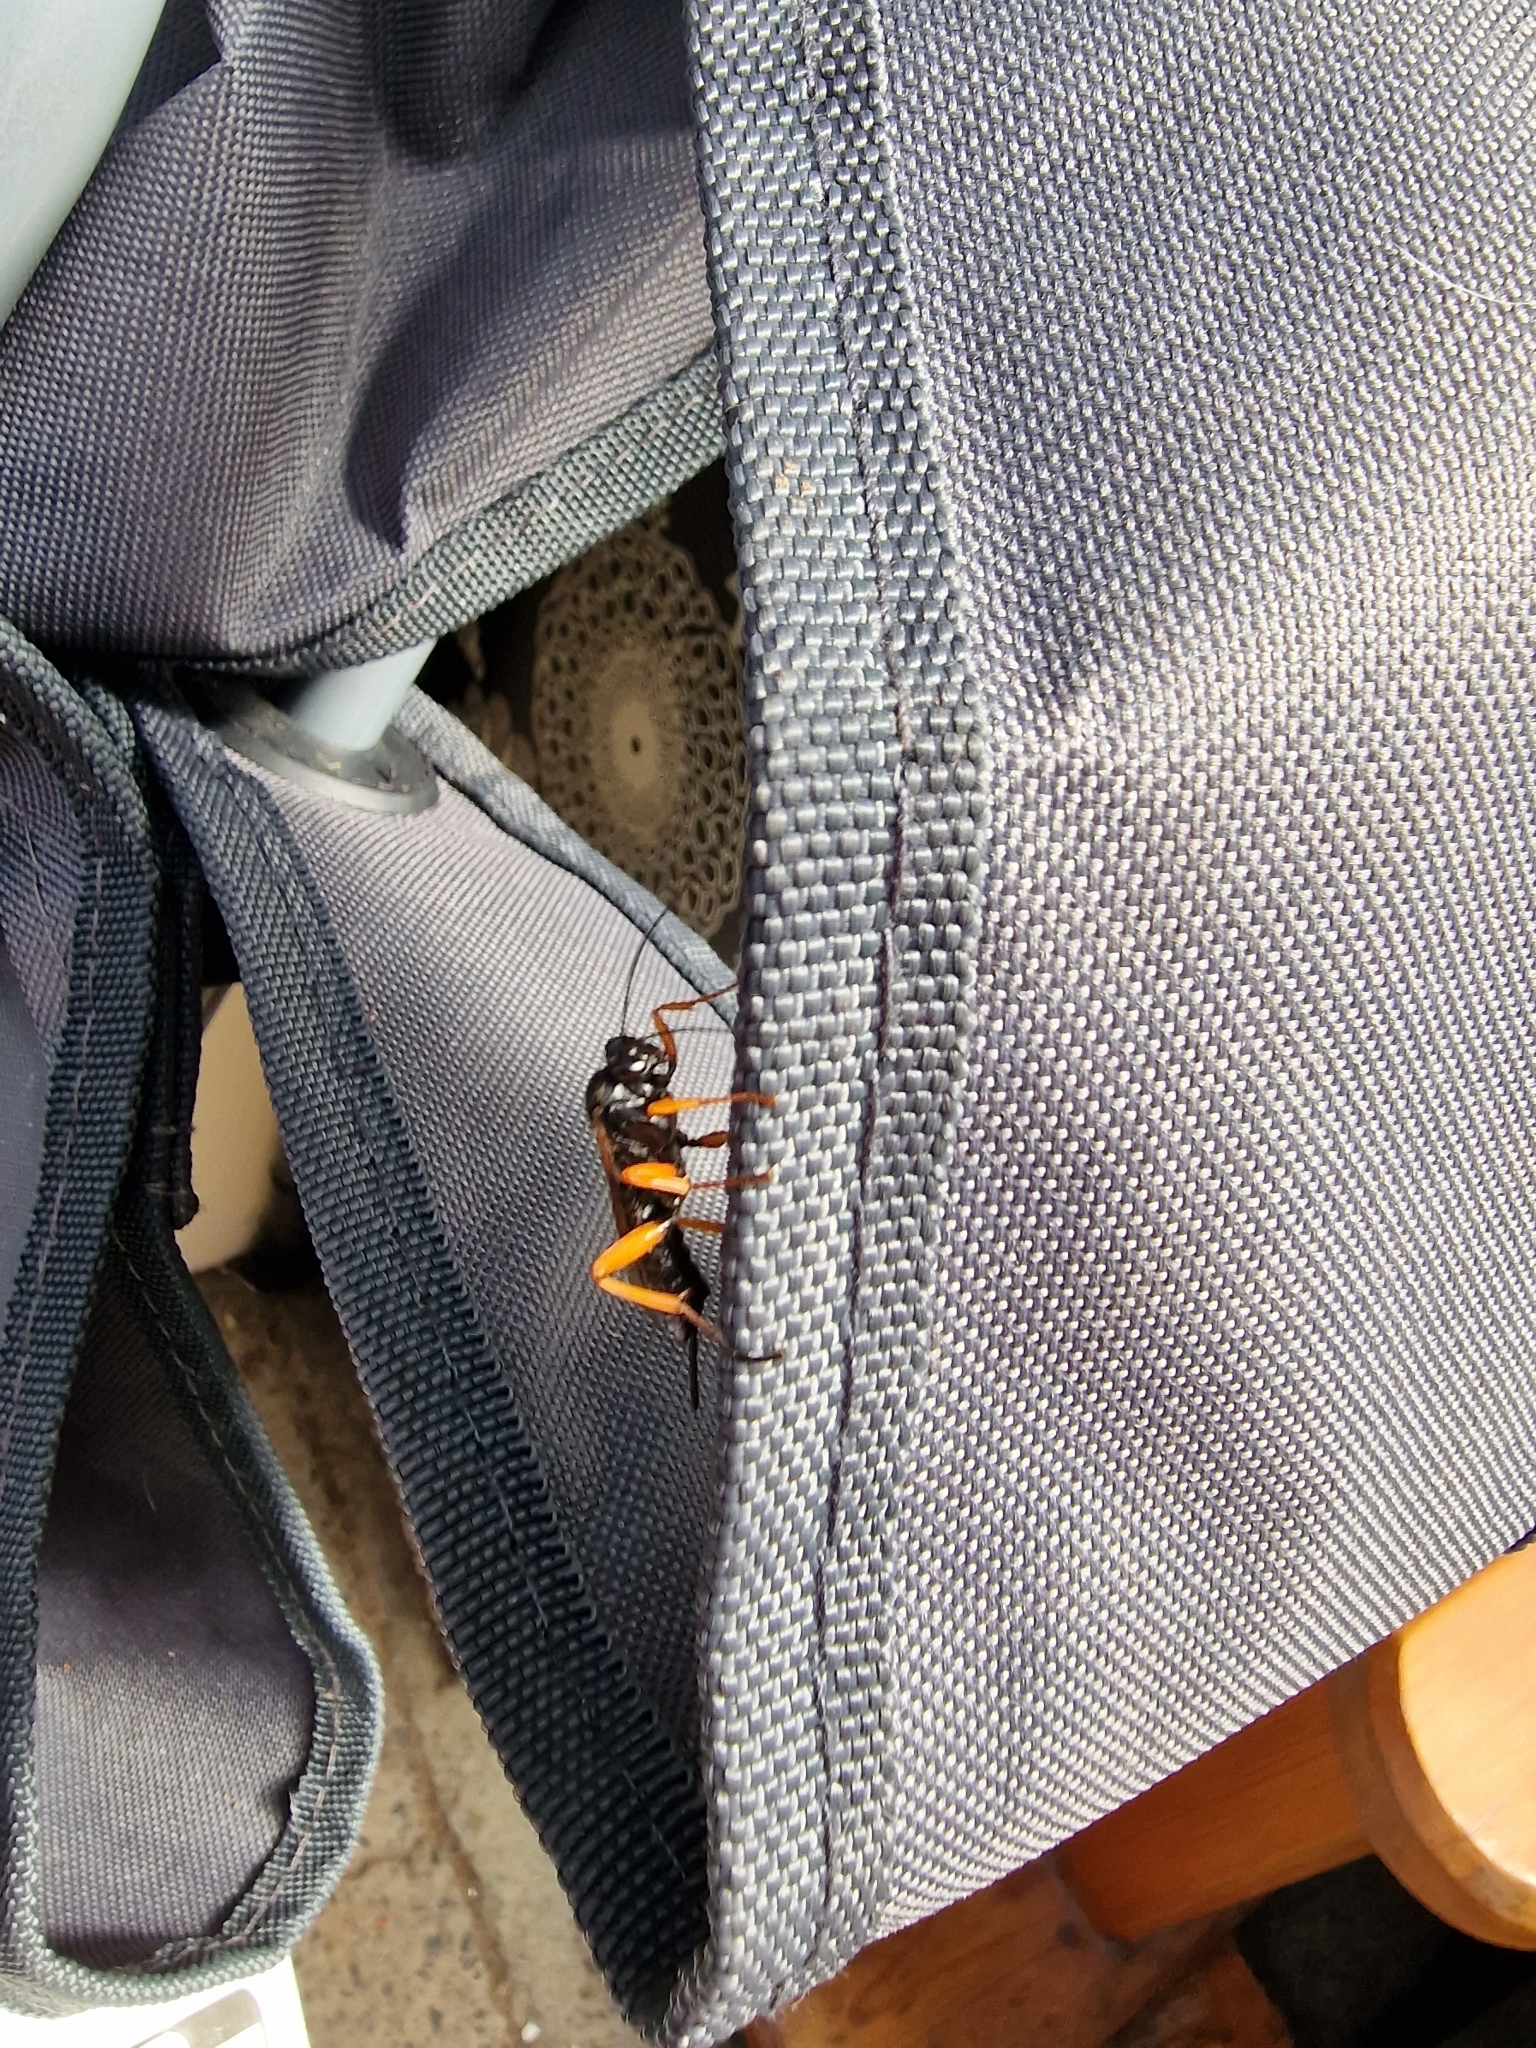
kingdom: Animalia
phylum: Arthropoda
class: Insecta
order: Hymenoptera
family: Ichneumonidae
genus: Pimpla
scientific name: Pimpla rufipes
